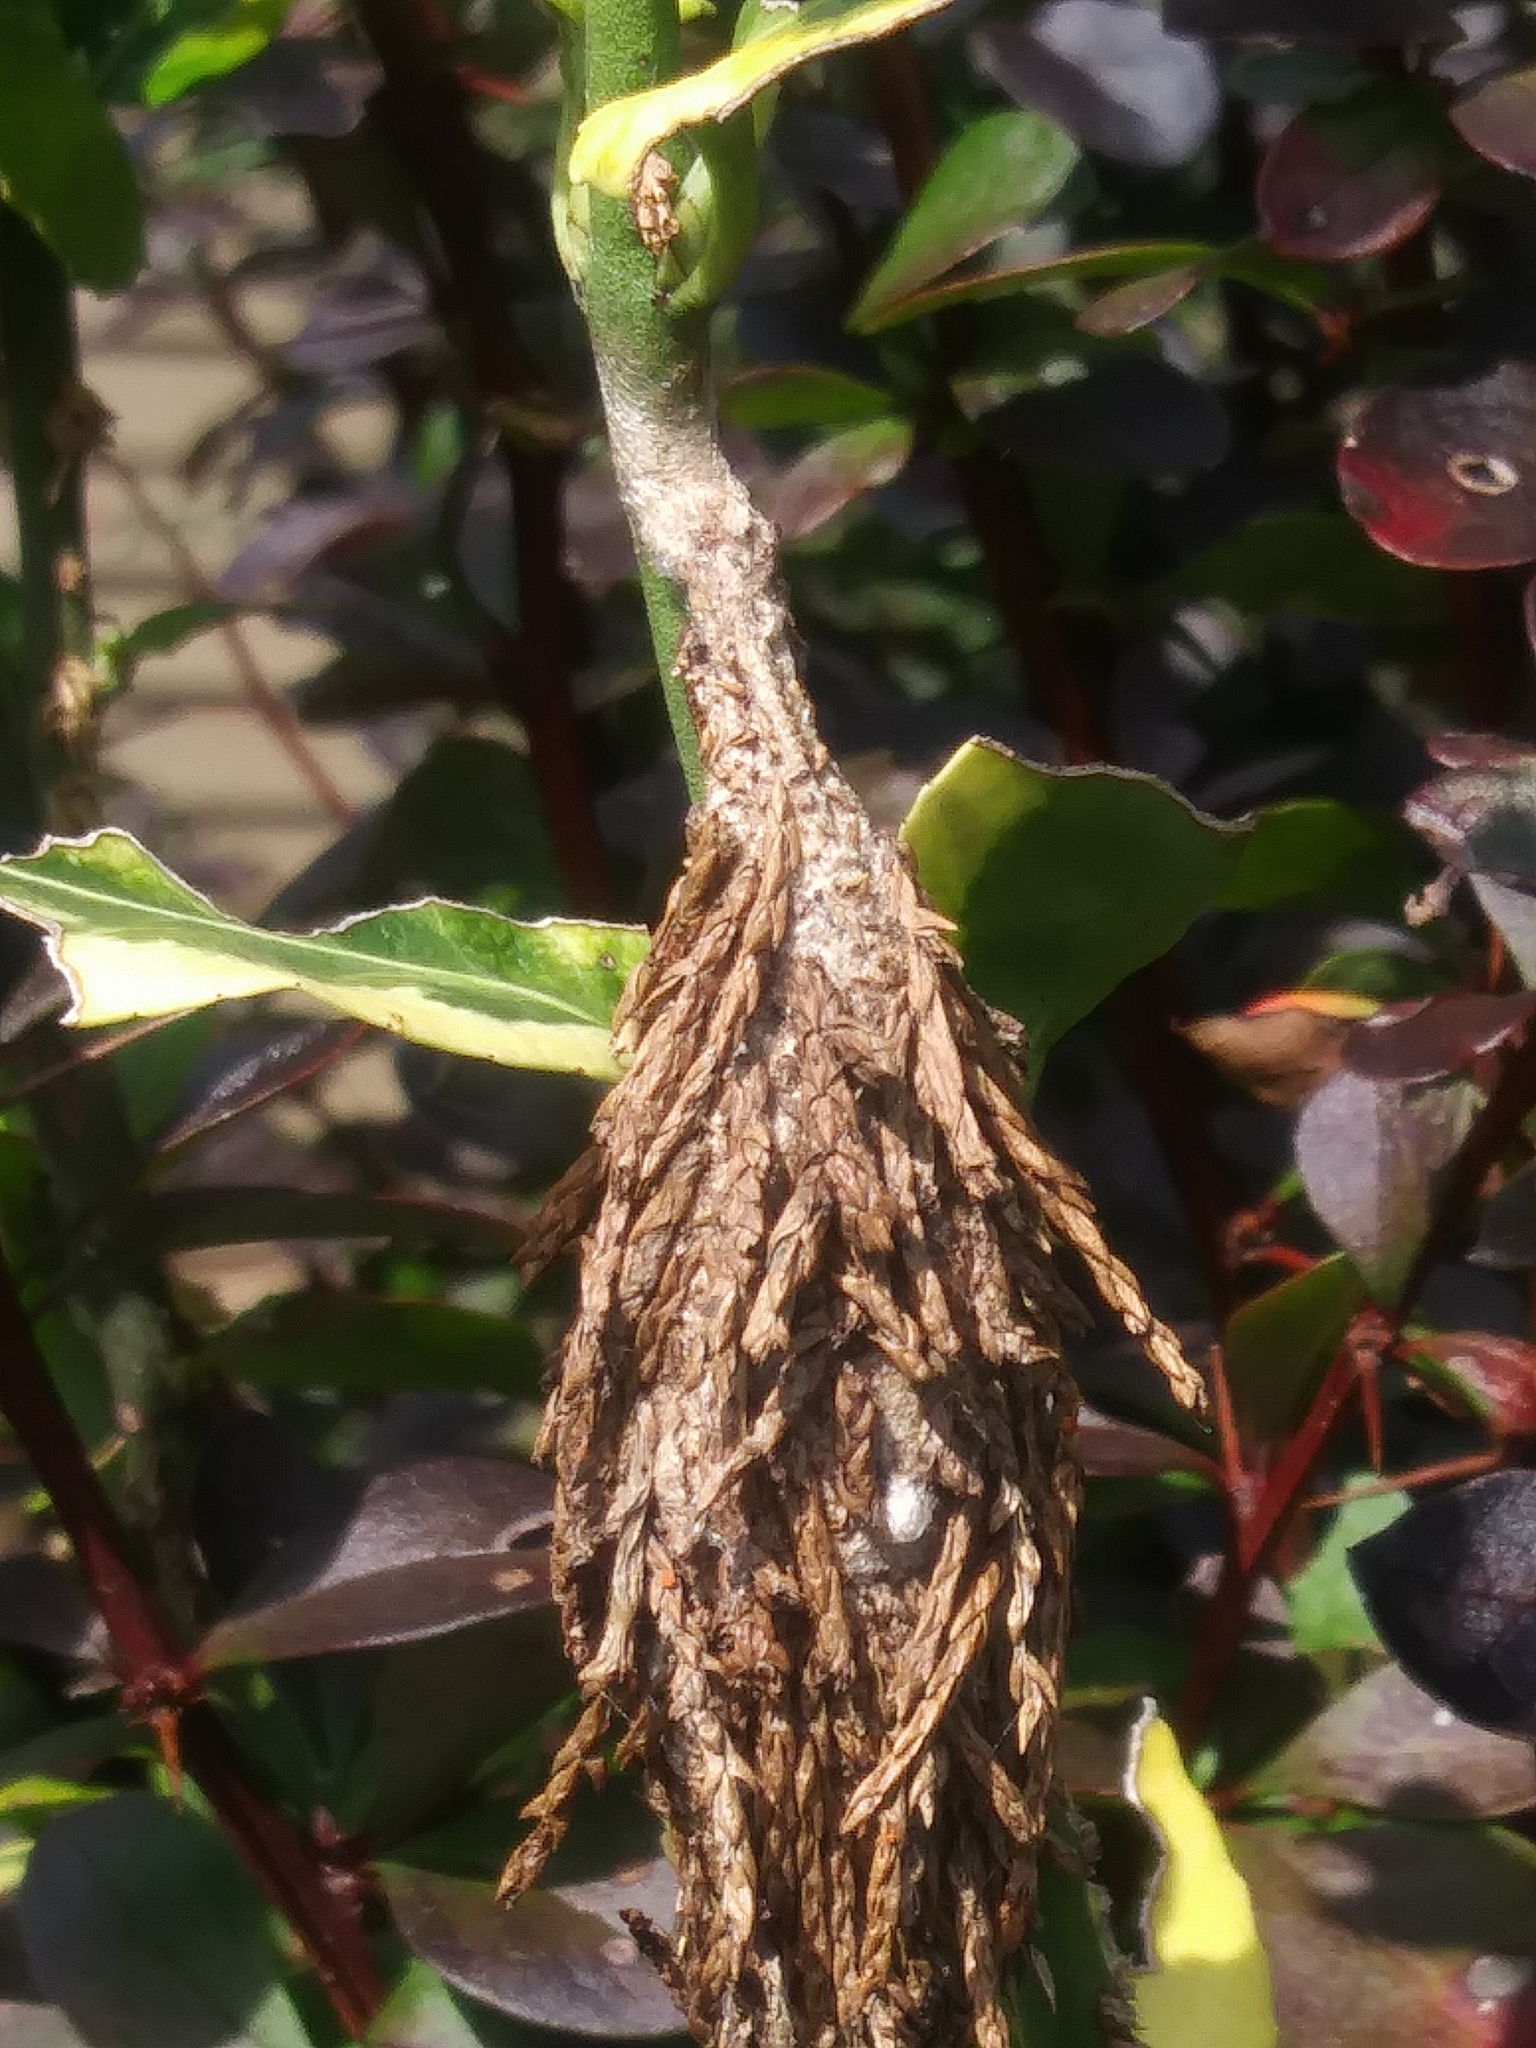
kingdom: Animalia
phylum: Arthropoda
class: Insecta
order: Lepidoptera
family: Psychidae
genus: Thyridopteryx
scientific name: Thyridopteryx ephemeraeformis
